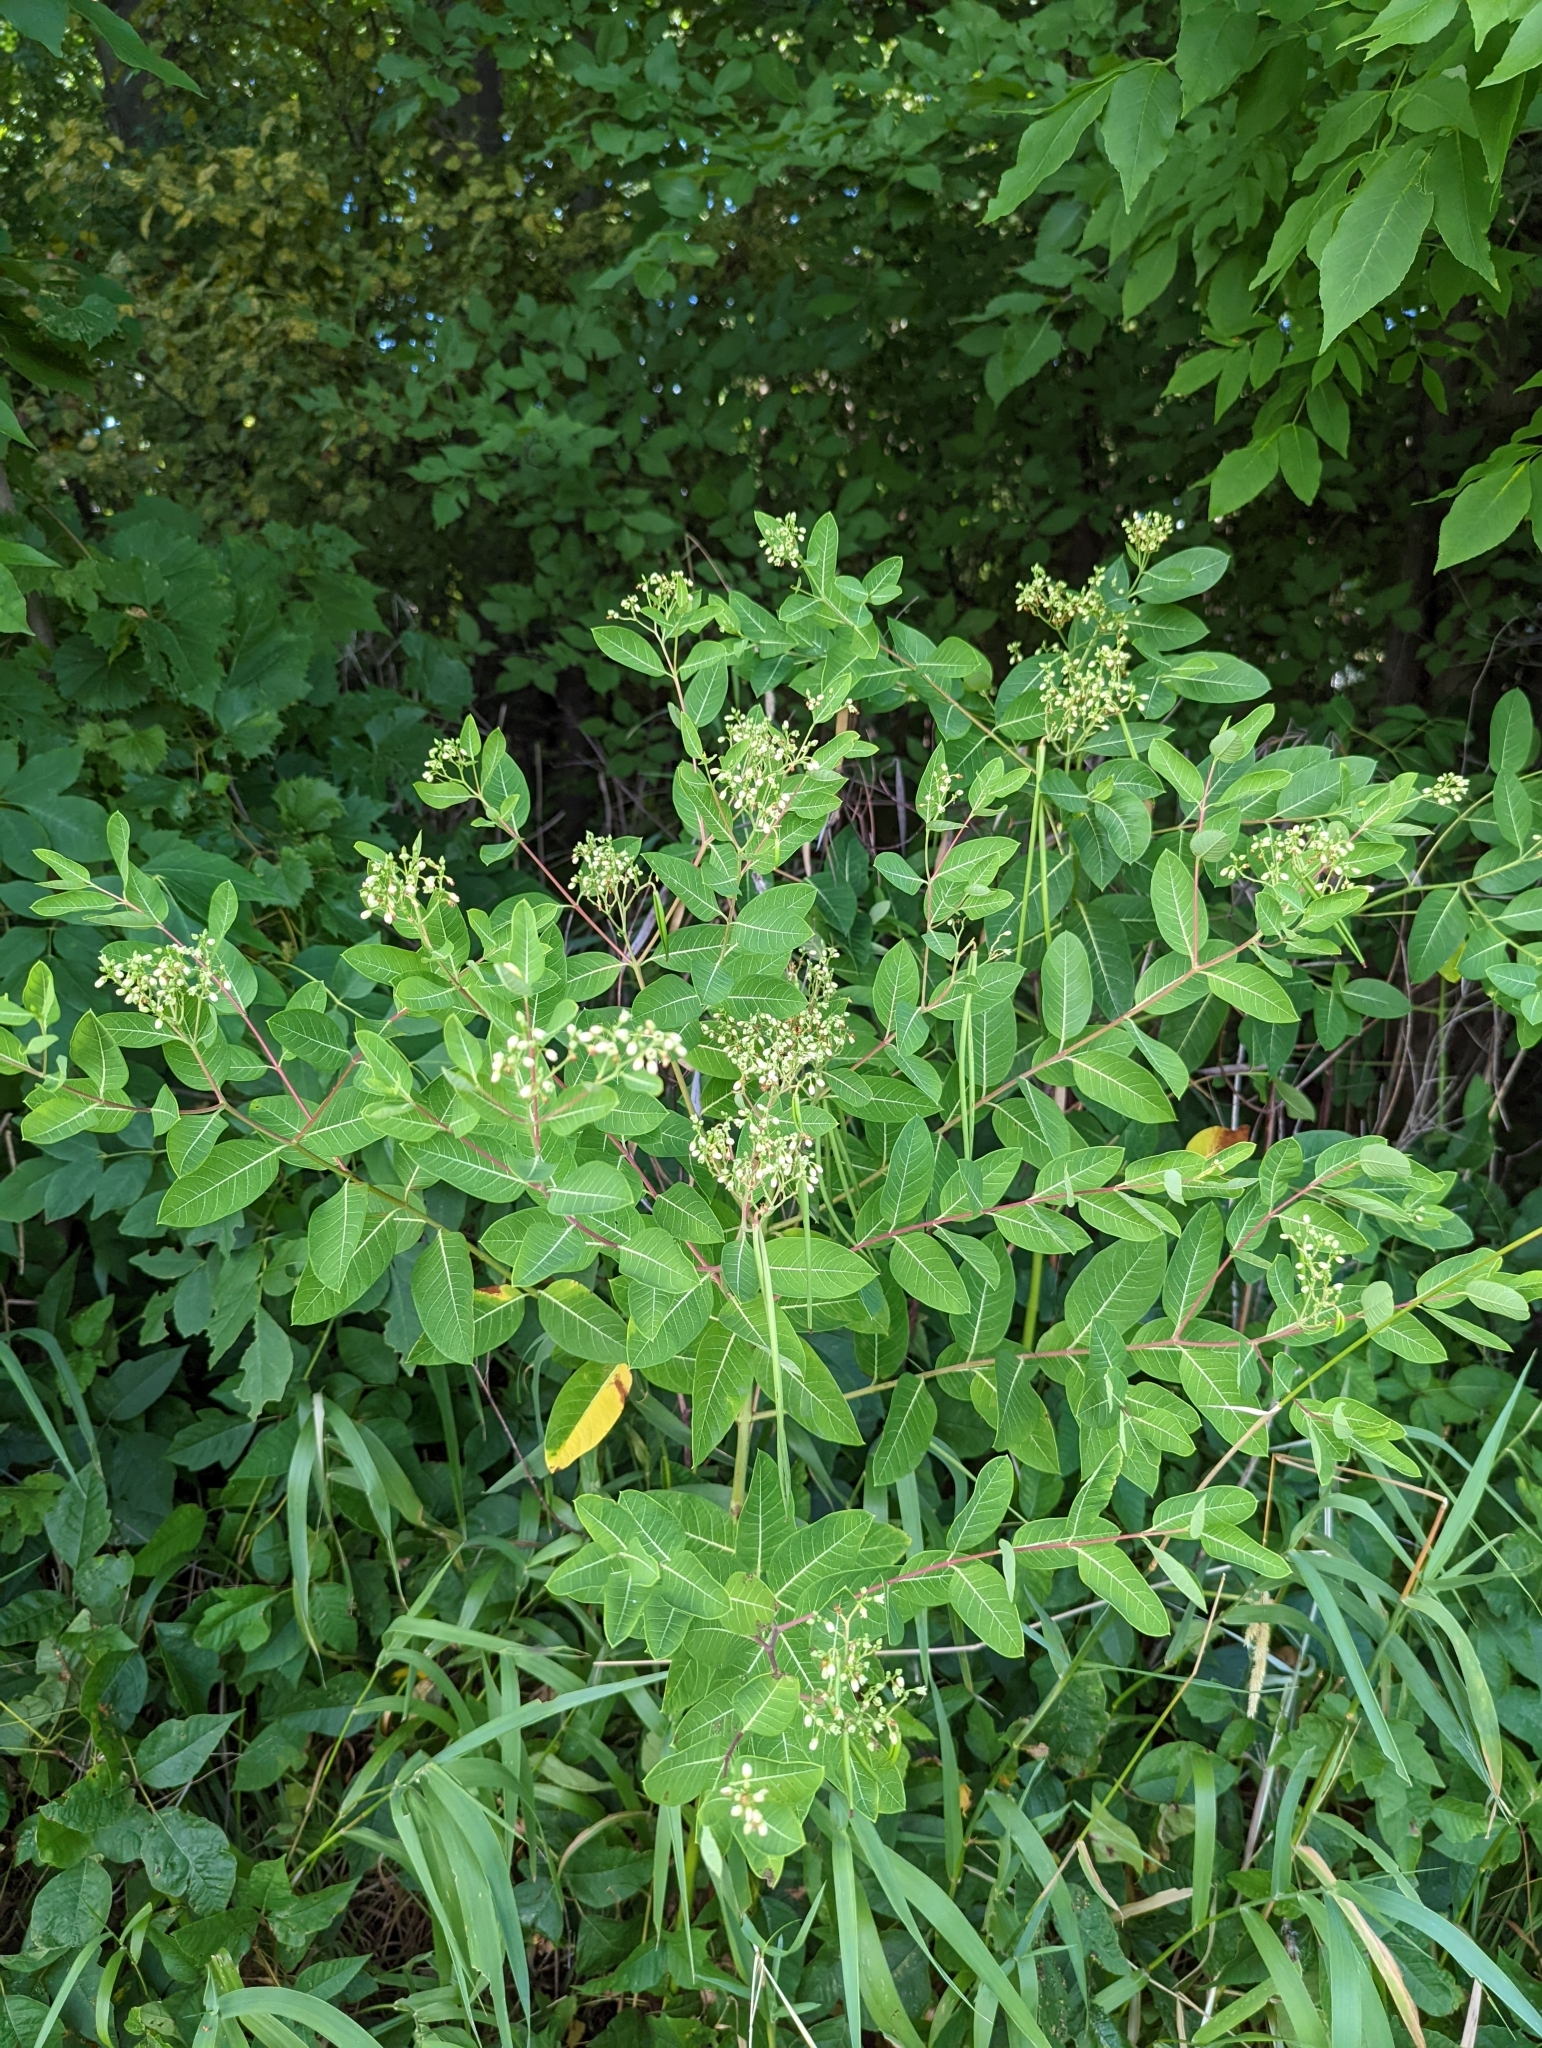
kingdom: Plantae
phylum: Tracheophyta
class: Magnoliopsida
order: Gentianales
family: Apocynaceae
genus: Apocynum
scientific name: Apocynum cannabinum
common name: Hemp dogbane
